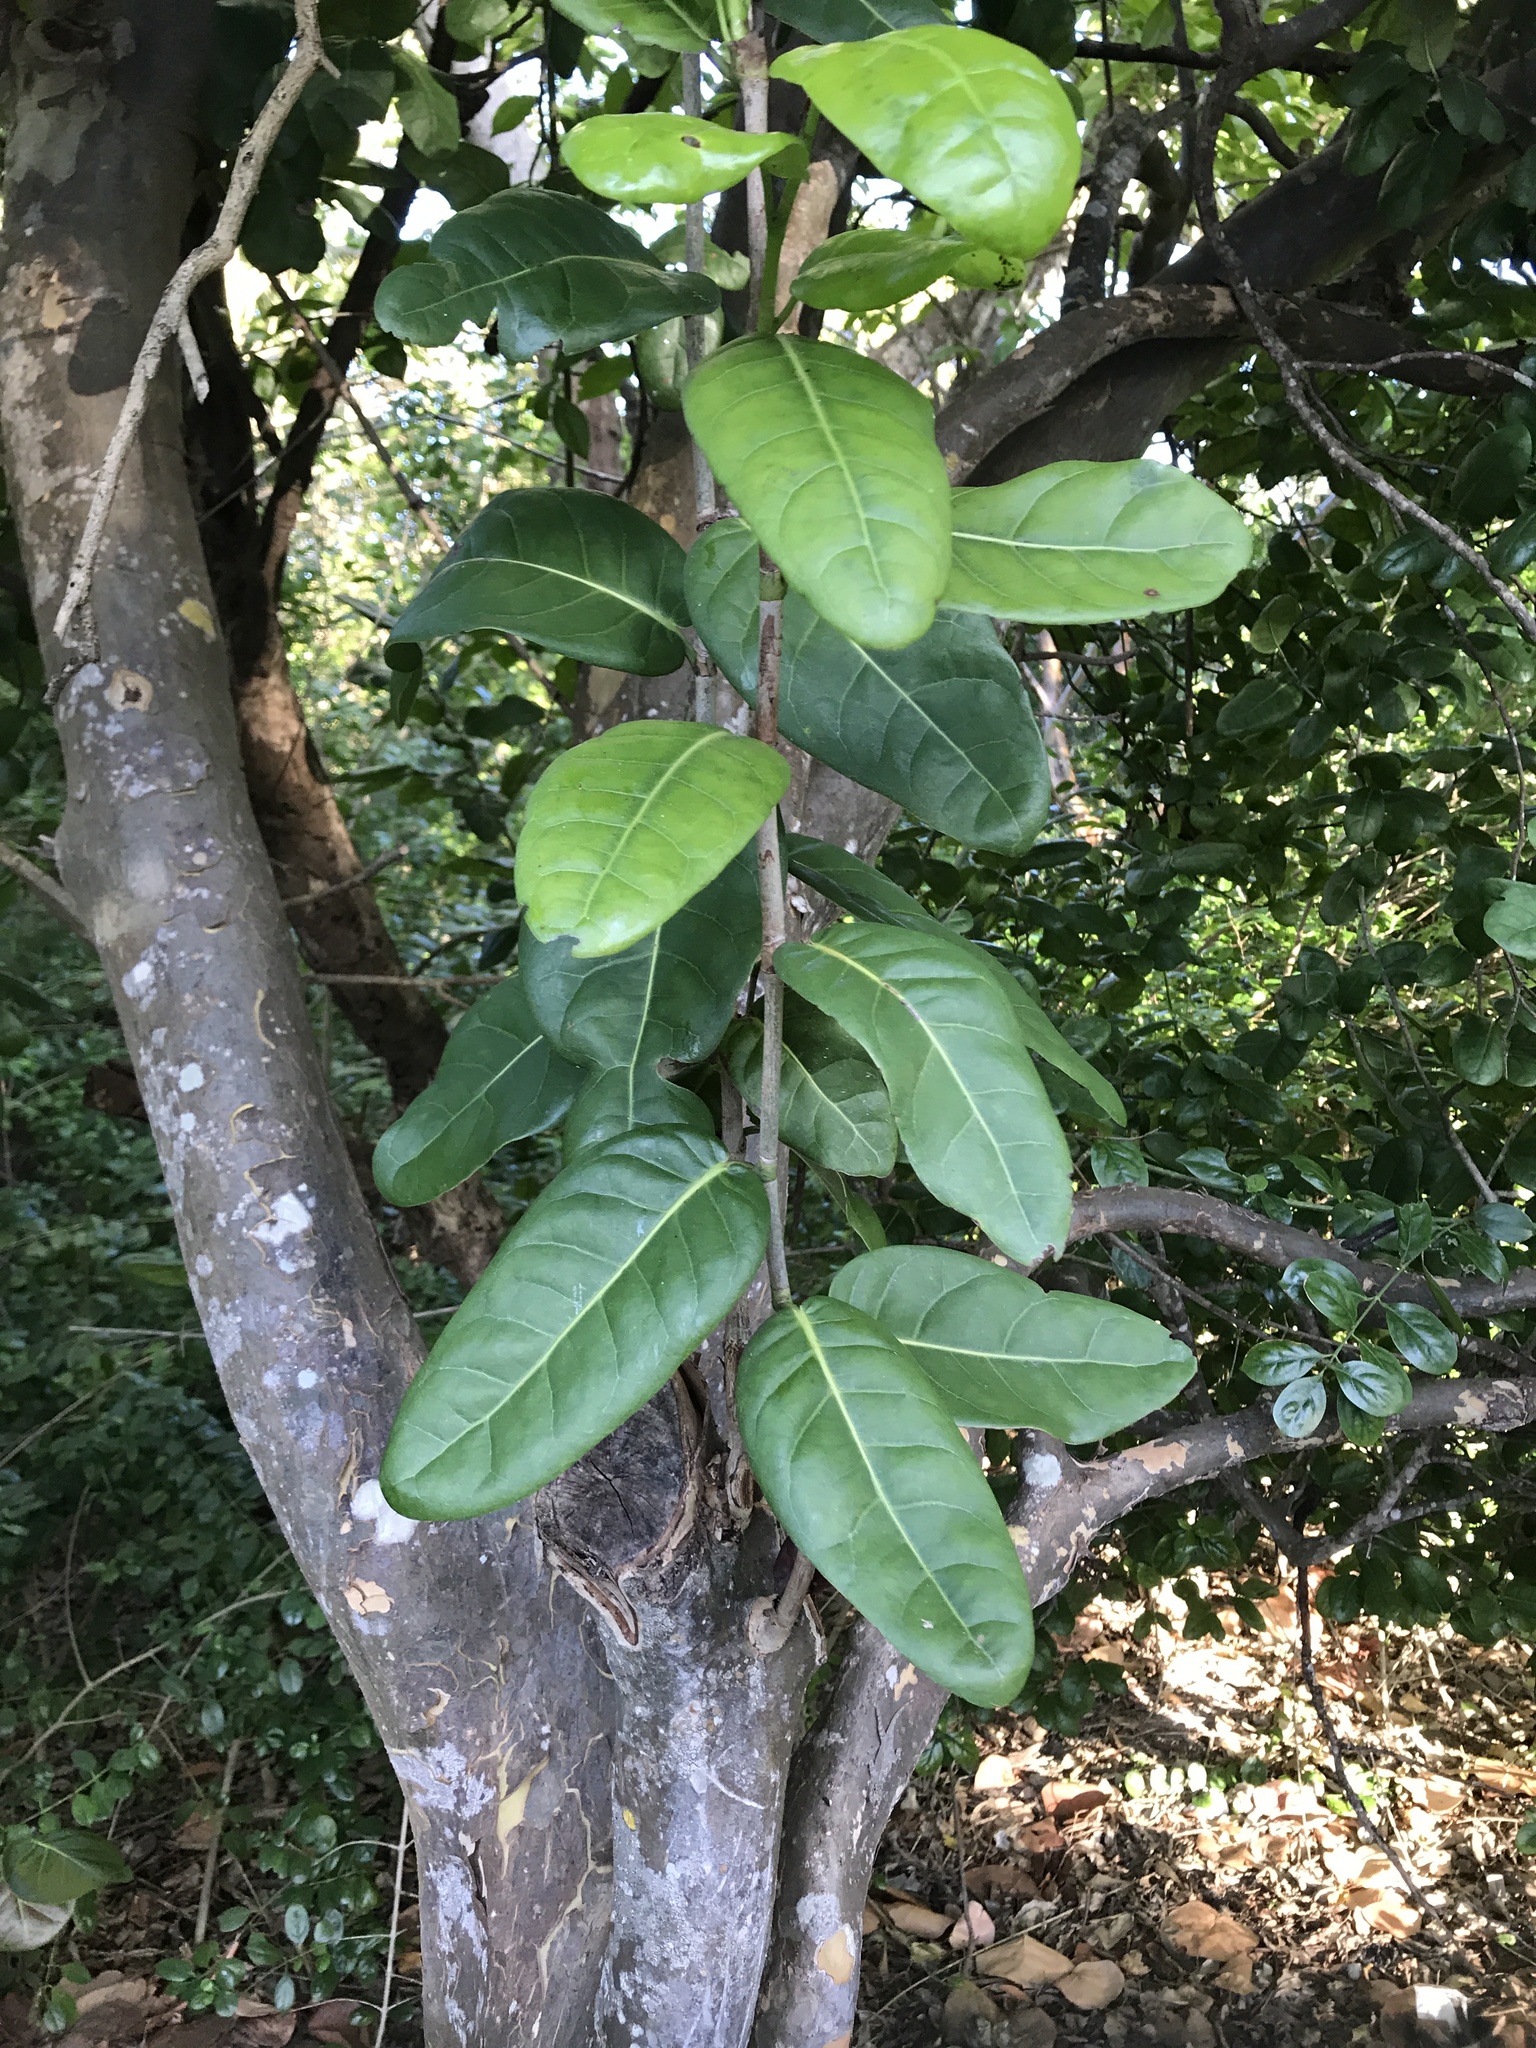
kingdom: Plantae
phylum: Tracheophyta
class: Magnoliopsida
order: Caryophyllales
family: Polygonaceae
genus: Coccoloba
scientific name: Coccoloba diversifolia
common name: Pigeon-plum
